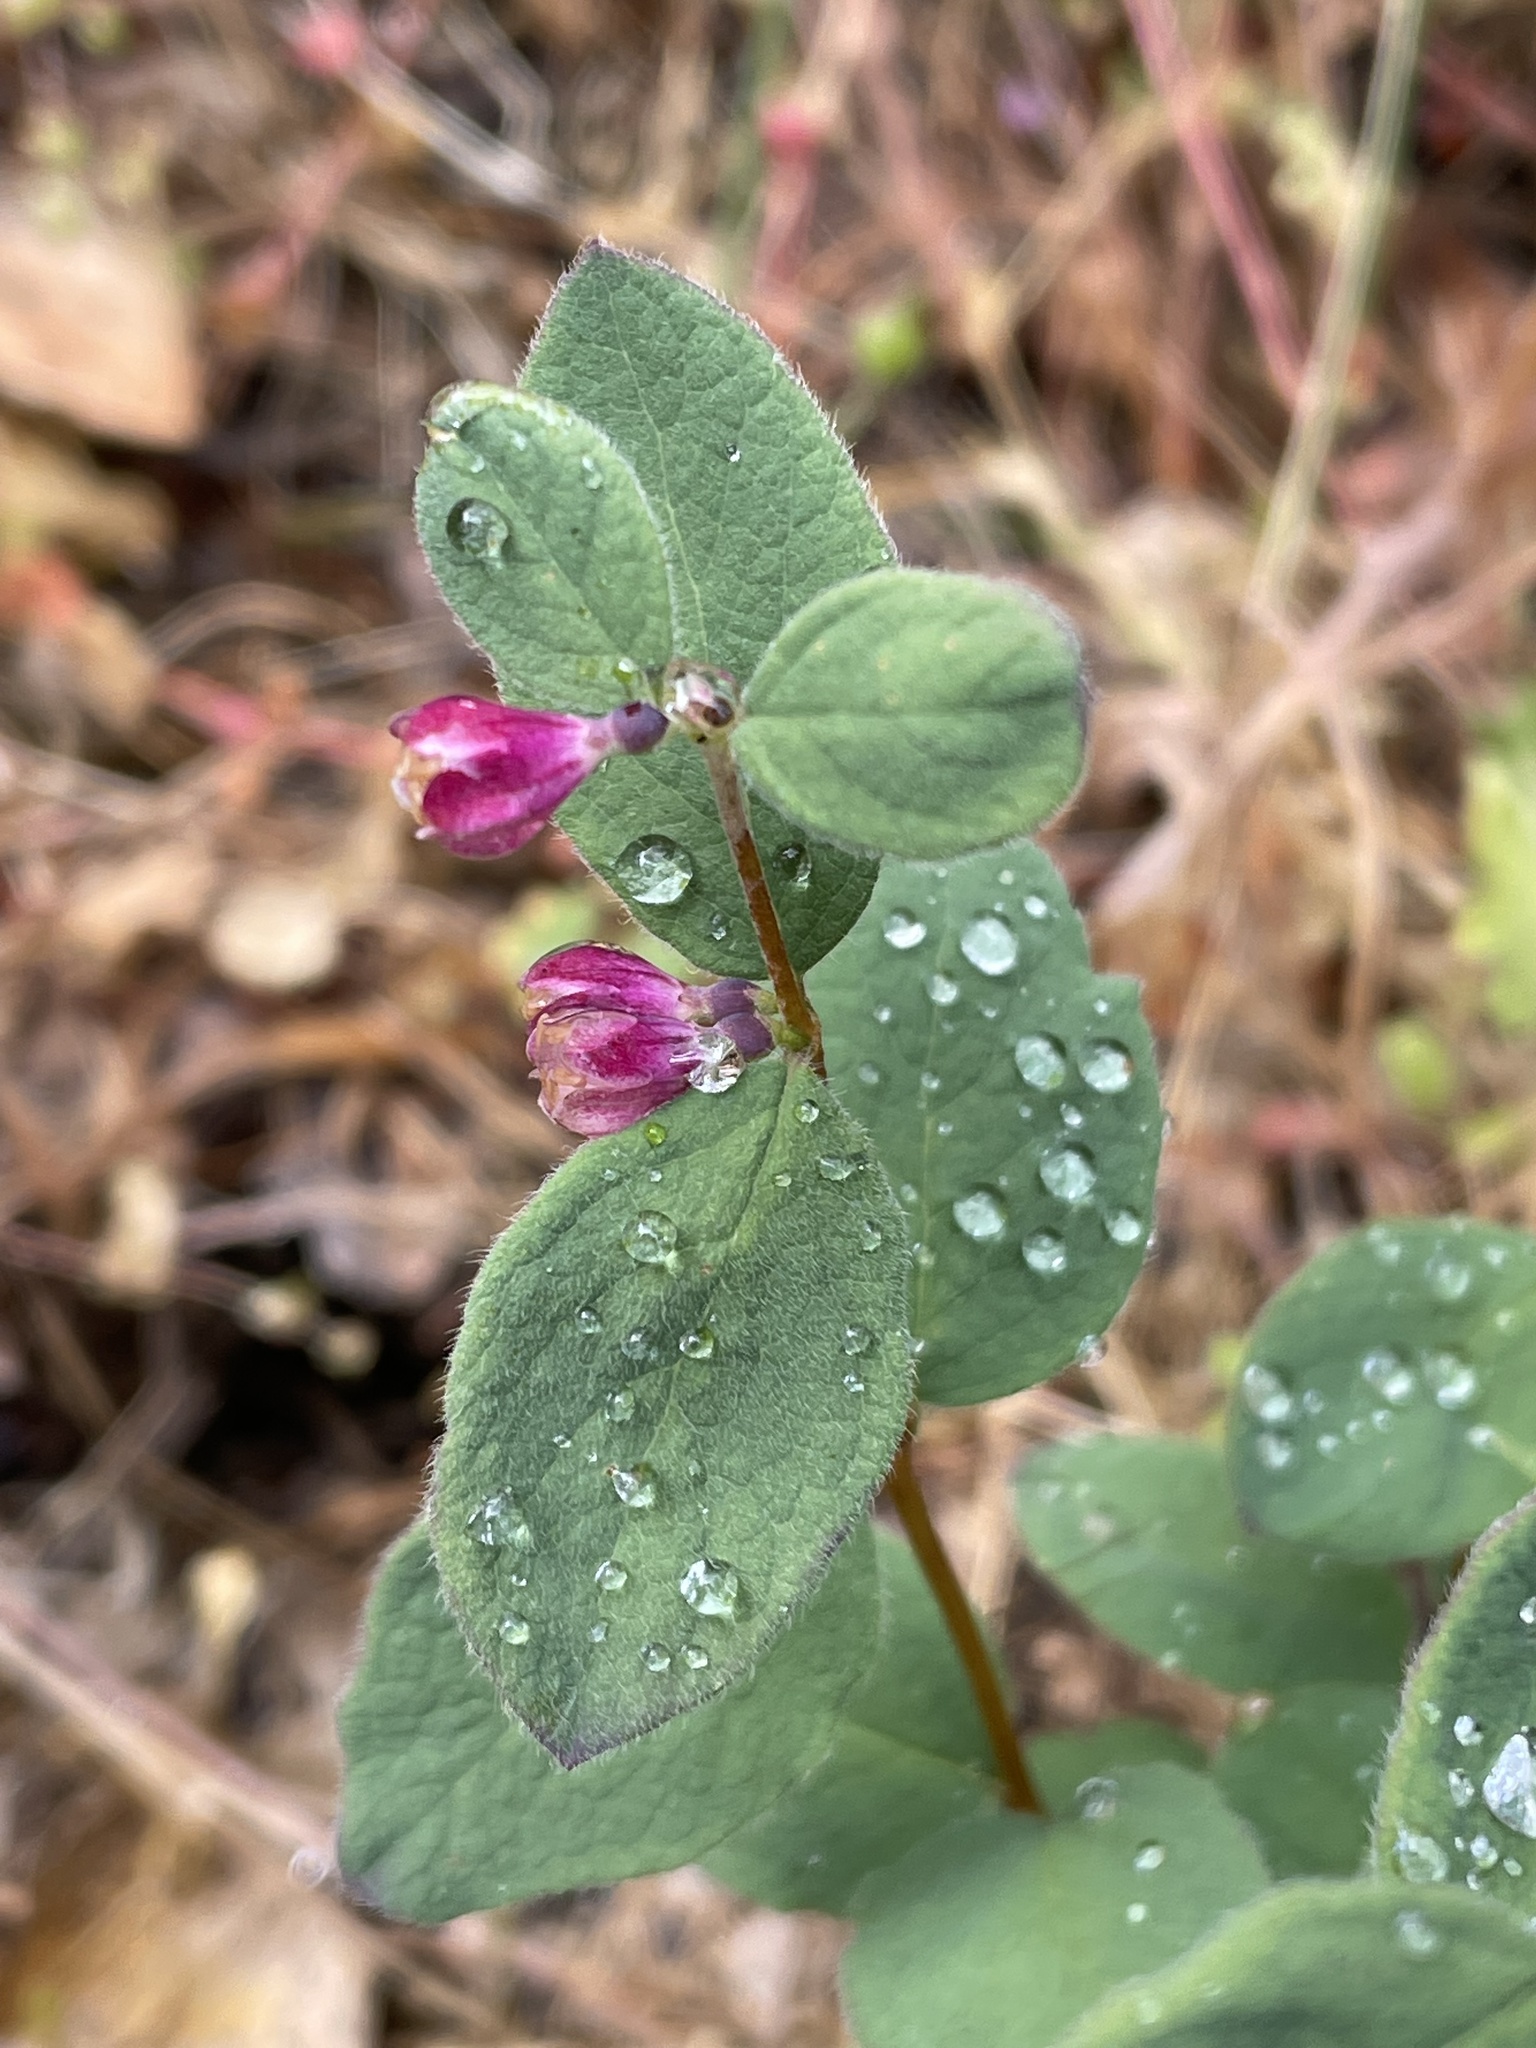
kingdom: Plantae
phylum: Tracheophyta
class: Magnoliopsida
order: Dipsacales
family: Caprifoliaceae
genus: Symphoricarpos
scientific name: Symphoricarpos mollis
